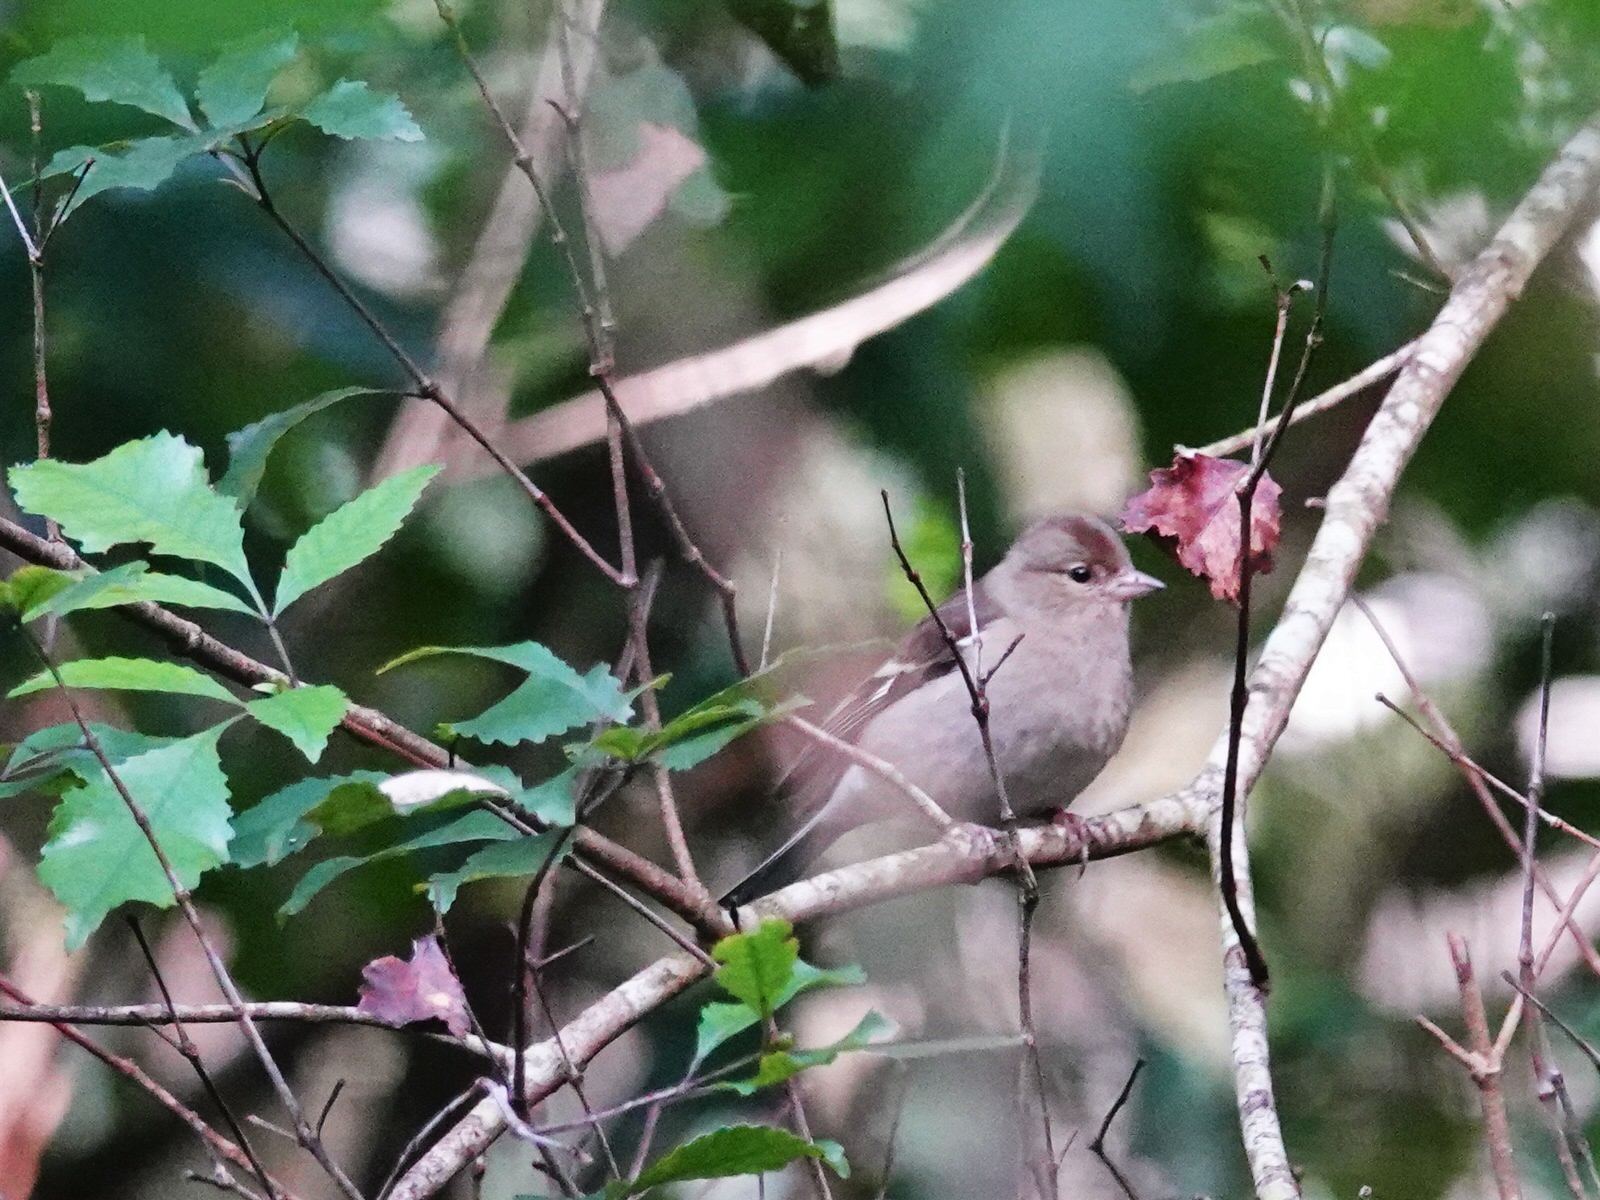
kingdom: Animalia
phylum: Chordata
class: Aves
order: Passeriformes
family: Fringillidae
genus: Fringilla
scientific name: Fringilla coelebs
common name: Common chaffinch
